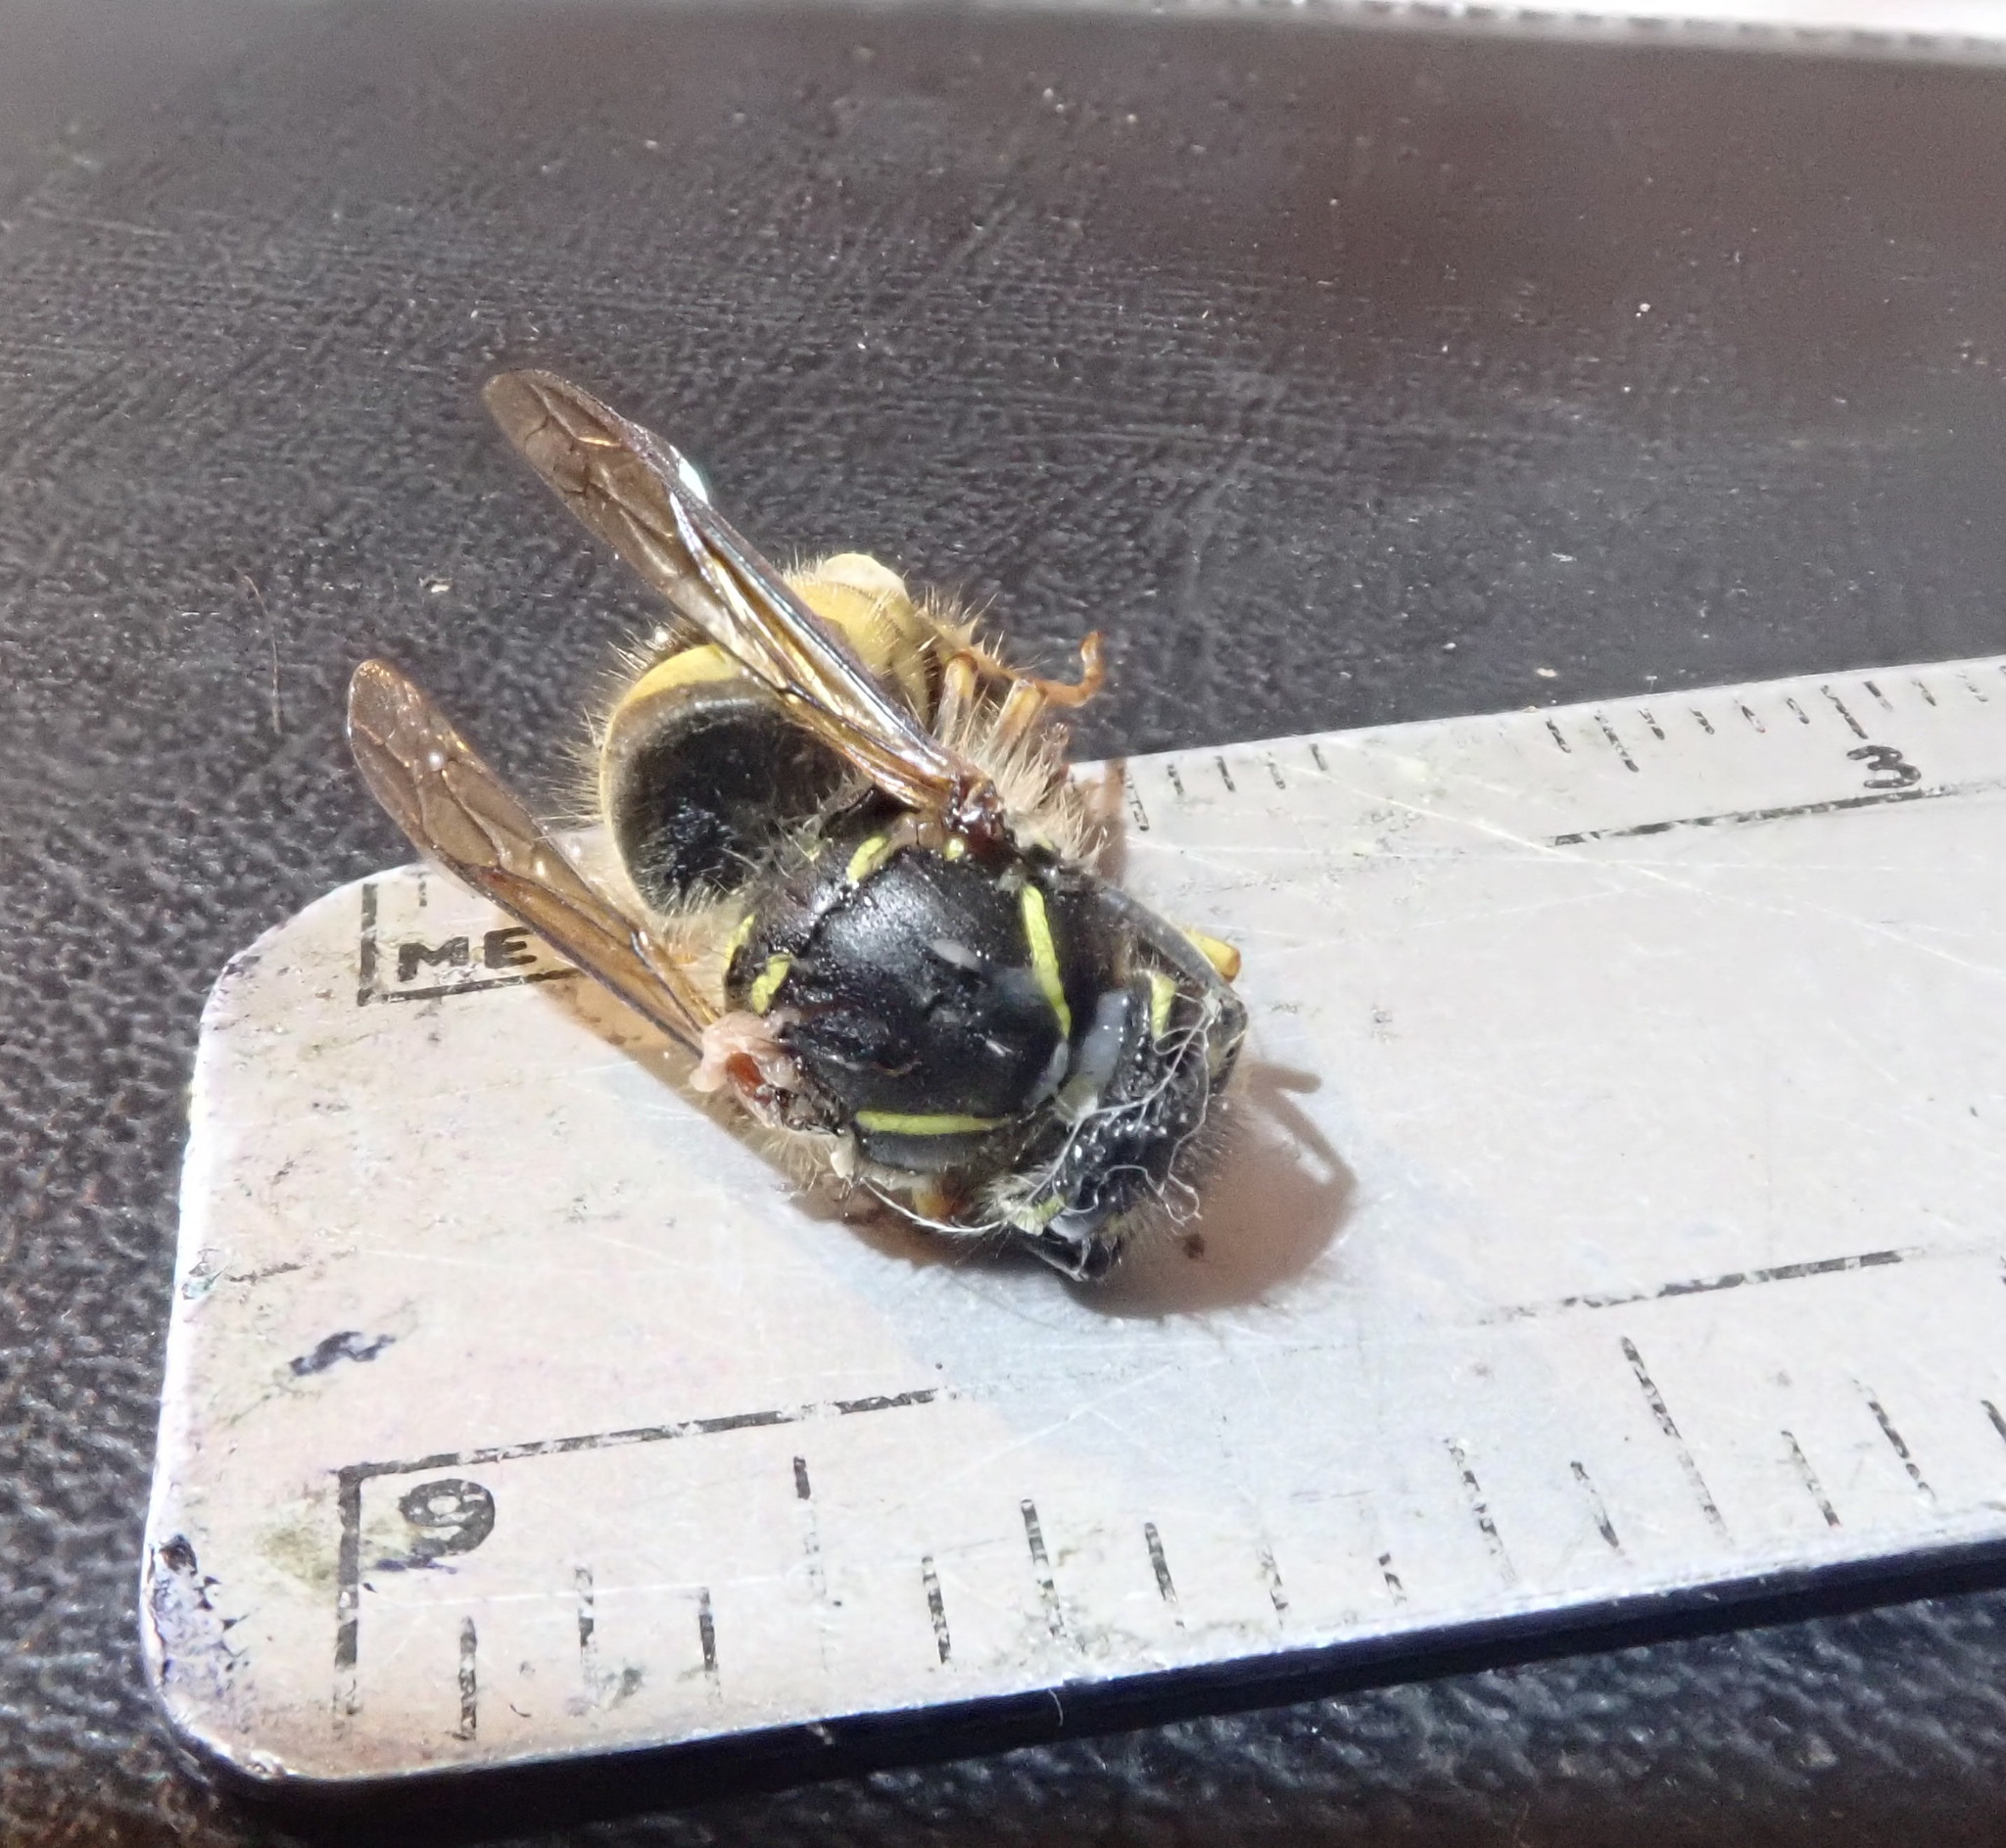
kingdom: Animalia
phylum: Arthropoda
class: Insecta
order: Hymenoptera
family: Vespidae
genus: Vespula
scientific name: Vespula vulgaris
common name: Common wasp
